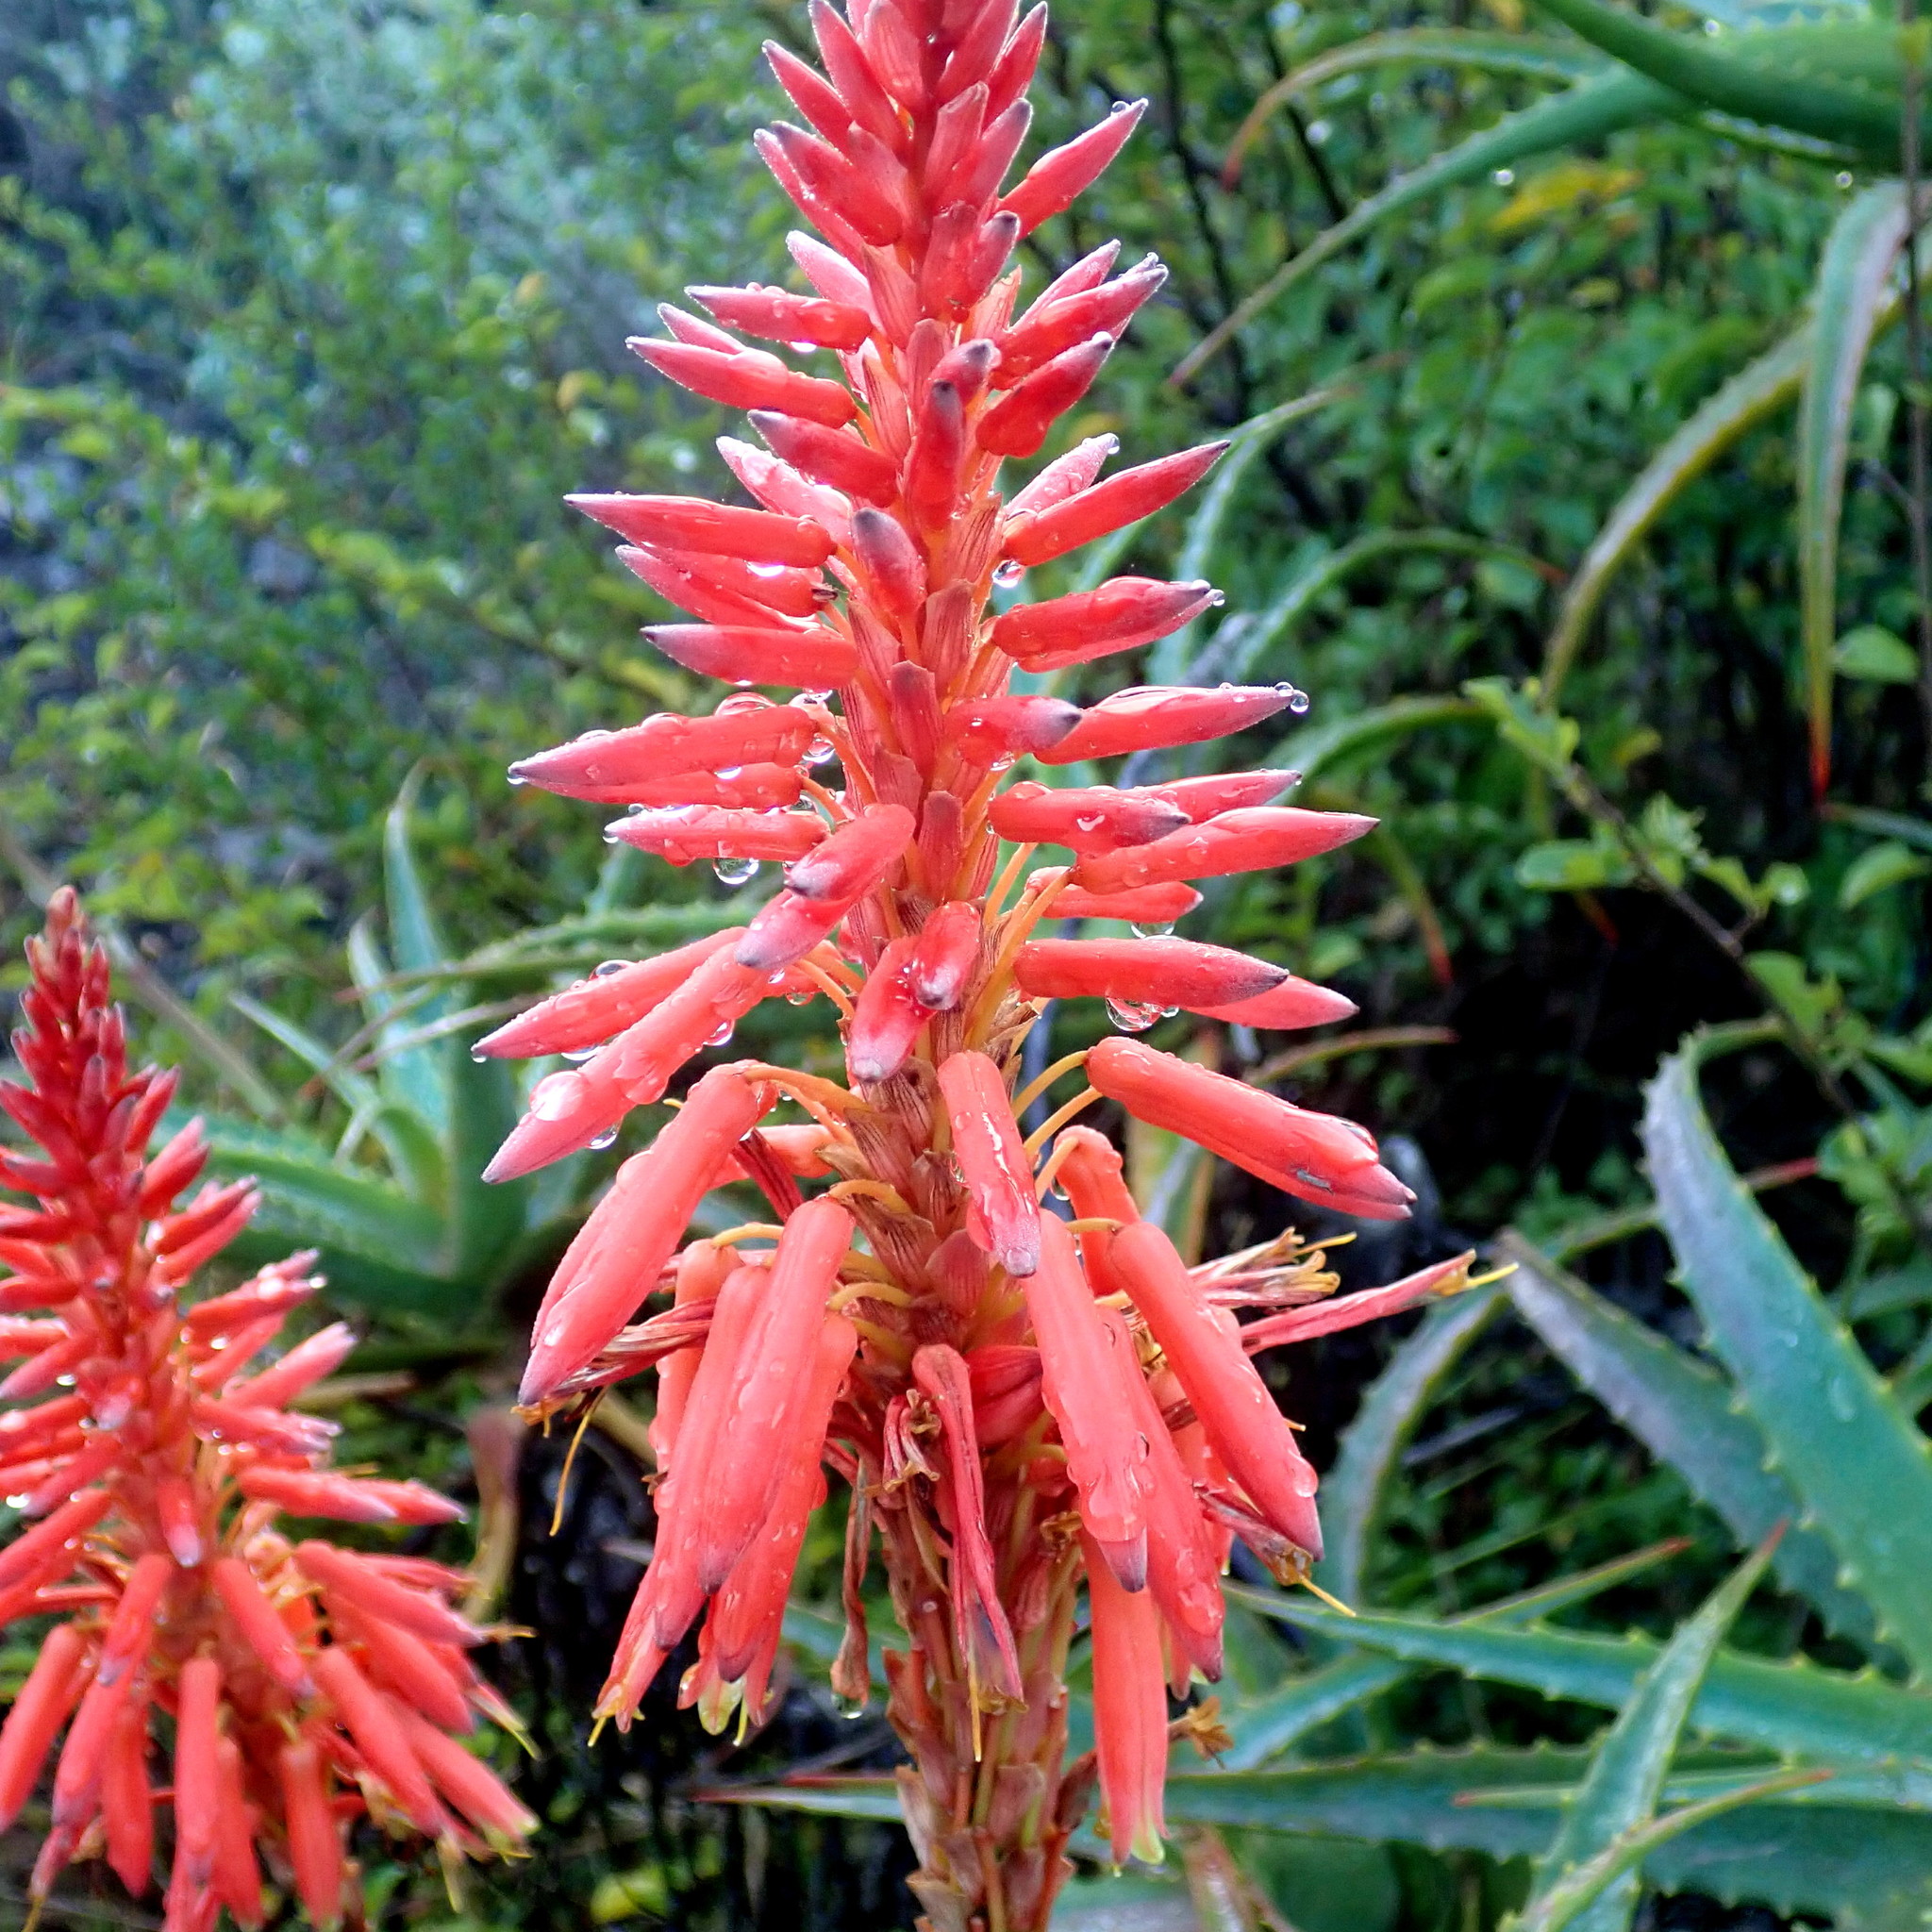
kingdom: Plantae
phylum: Tracheophyta
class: Liliopsida
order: Asparagales
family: Asphodelaceae
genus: Aloe
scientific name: Aloe arborescens
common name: Candelabra aloe
